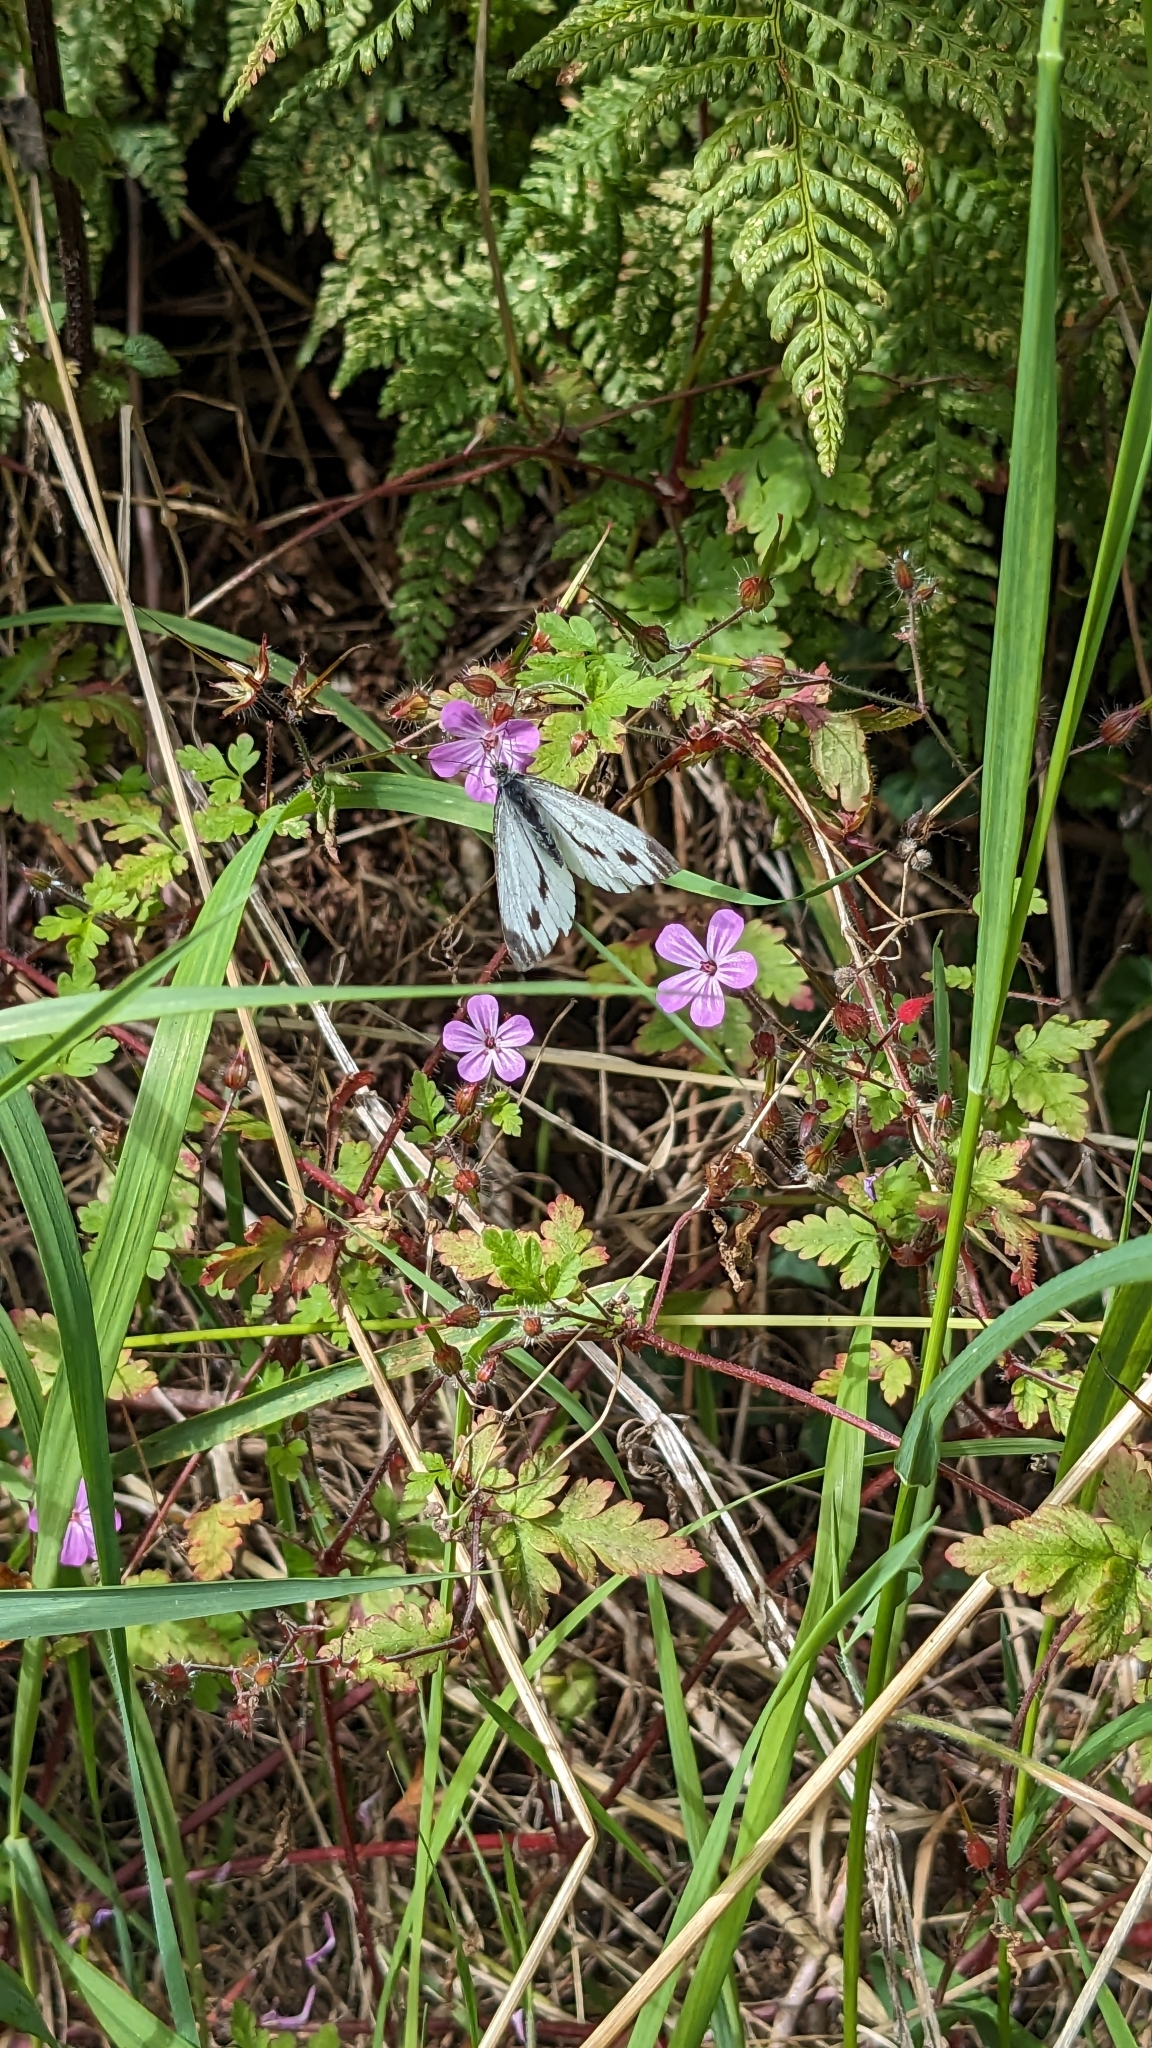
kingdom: Animalia
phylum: Arthropoda
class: Insecta
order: Lepidoptera
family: Pieridae
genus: Pieris
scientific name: Pieris napi
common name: Green-veined white
